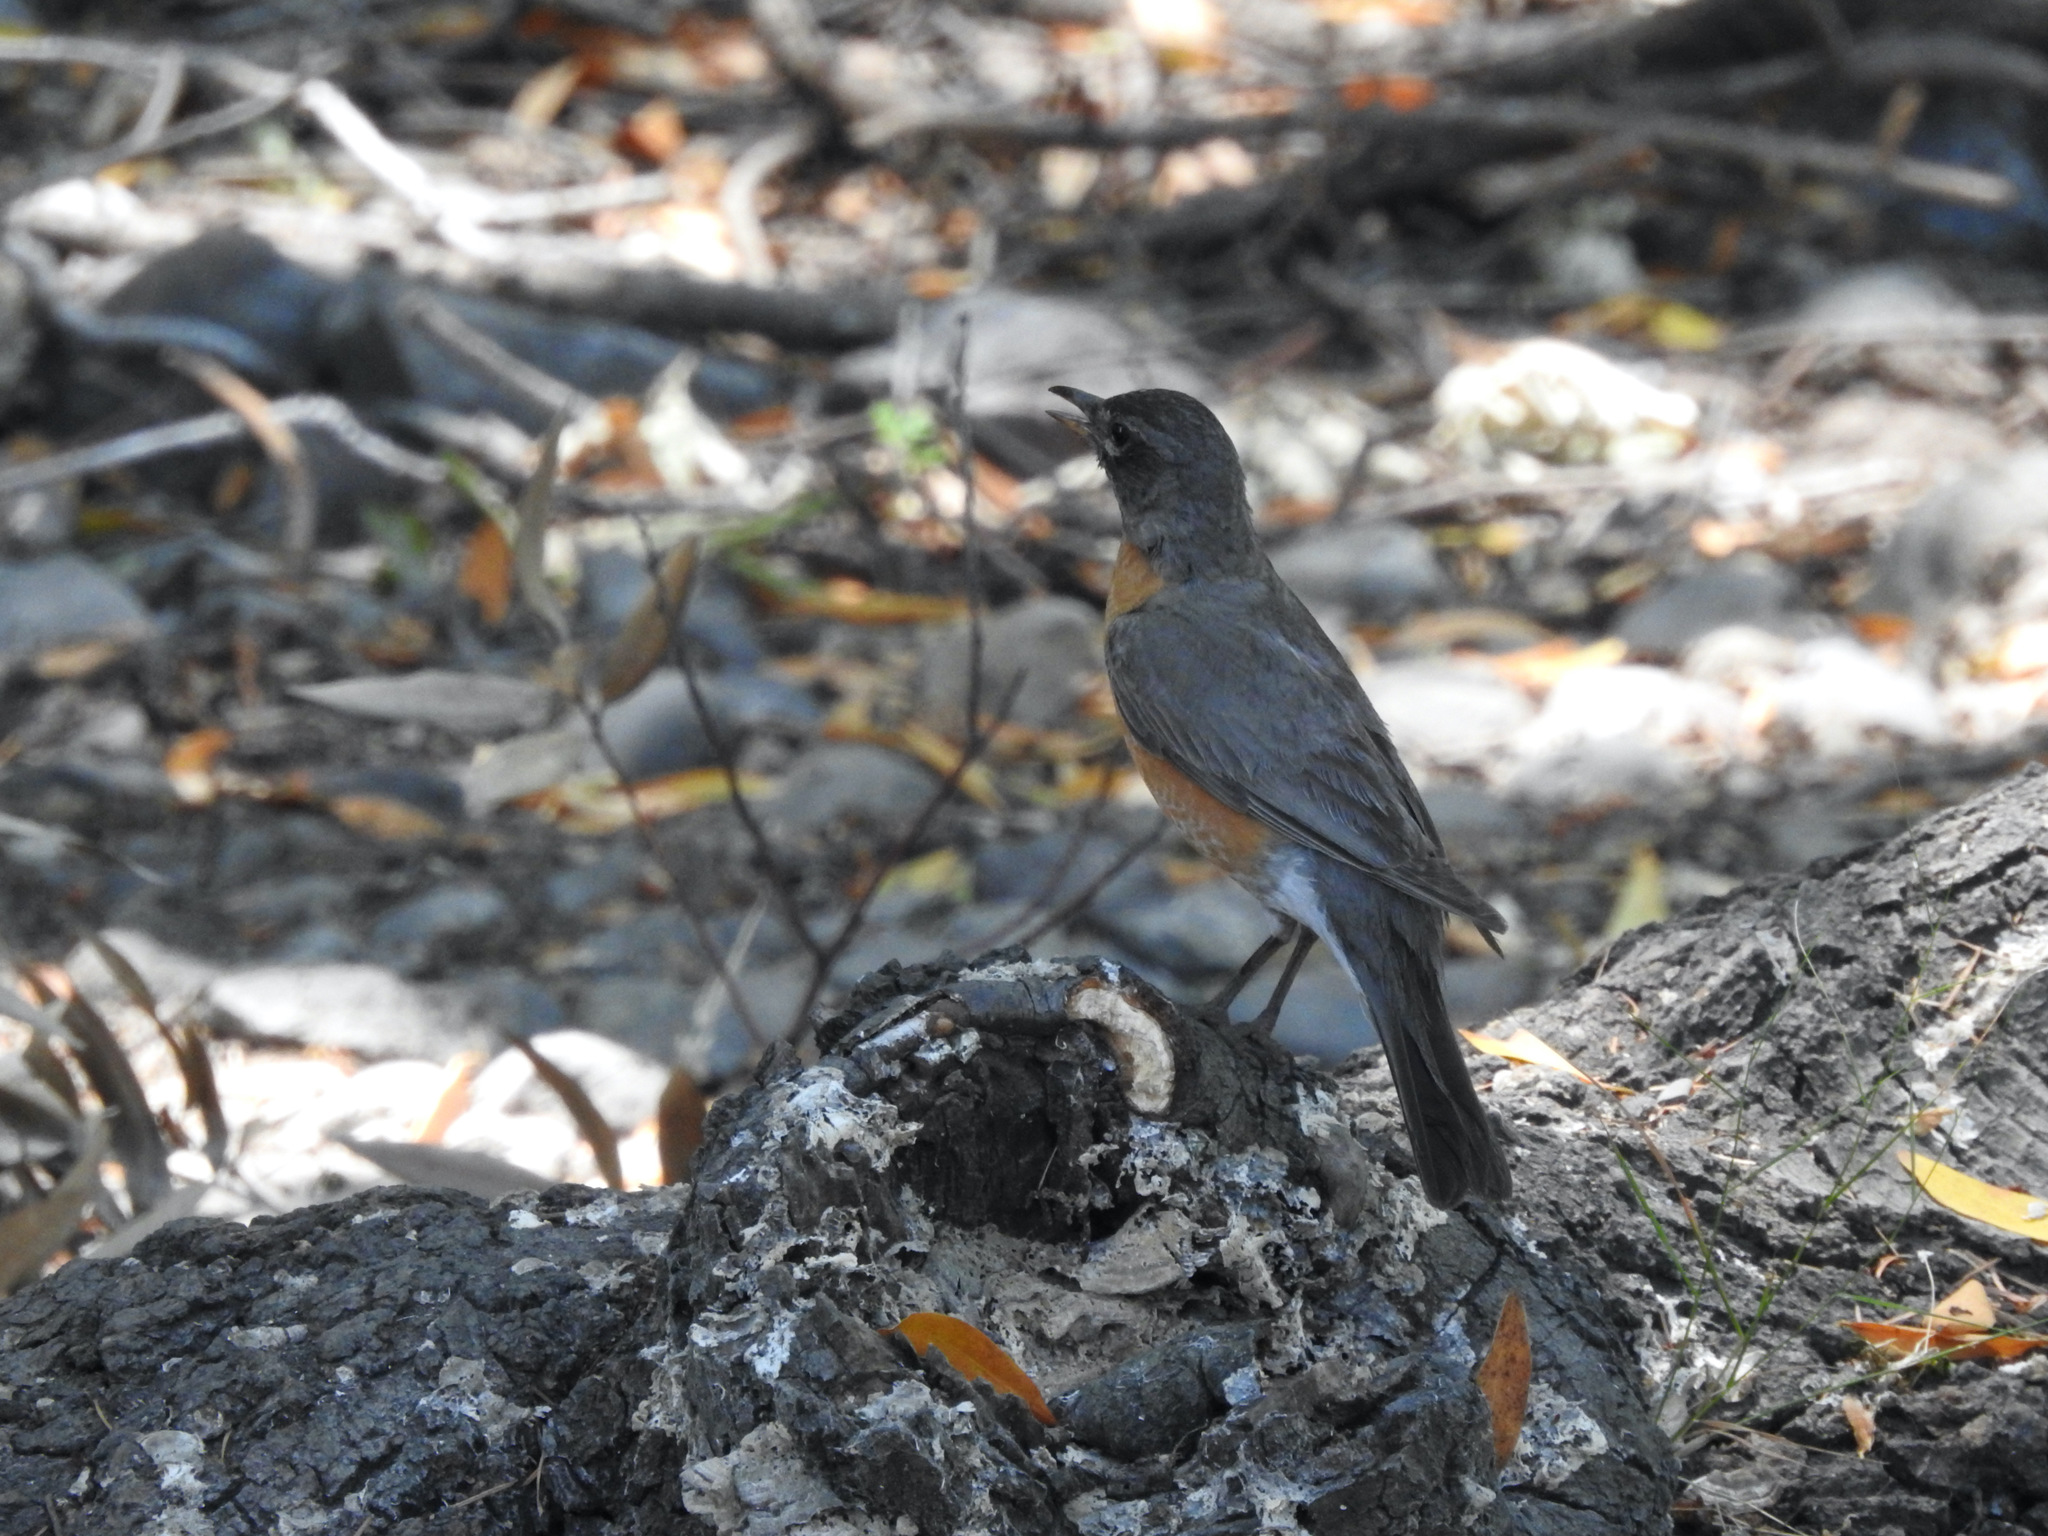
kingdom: Animalia
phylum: Chordata
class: Aves
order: Passeriformes
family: Turdidae
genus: Turdus
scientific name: Turdus migratorius
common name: American robin
